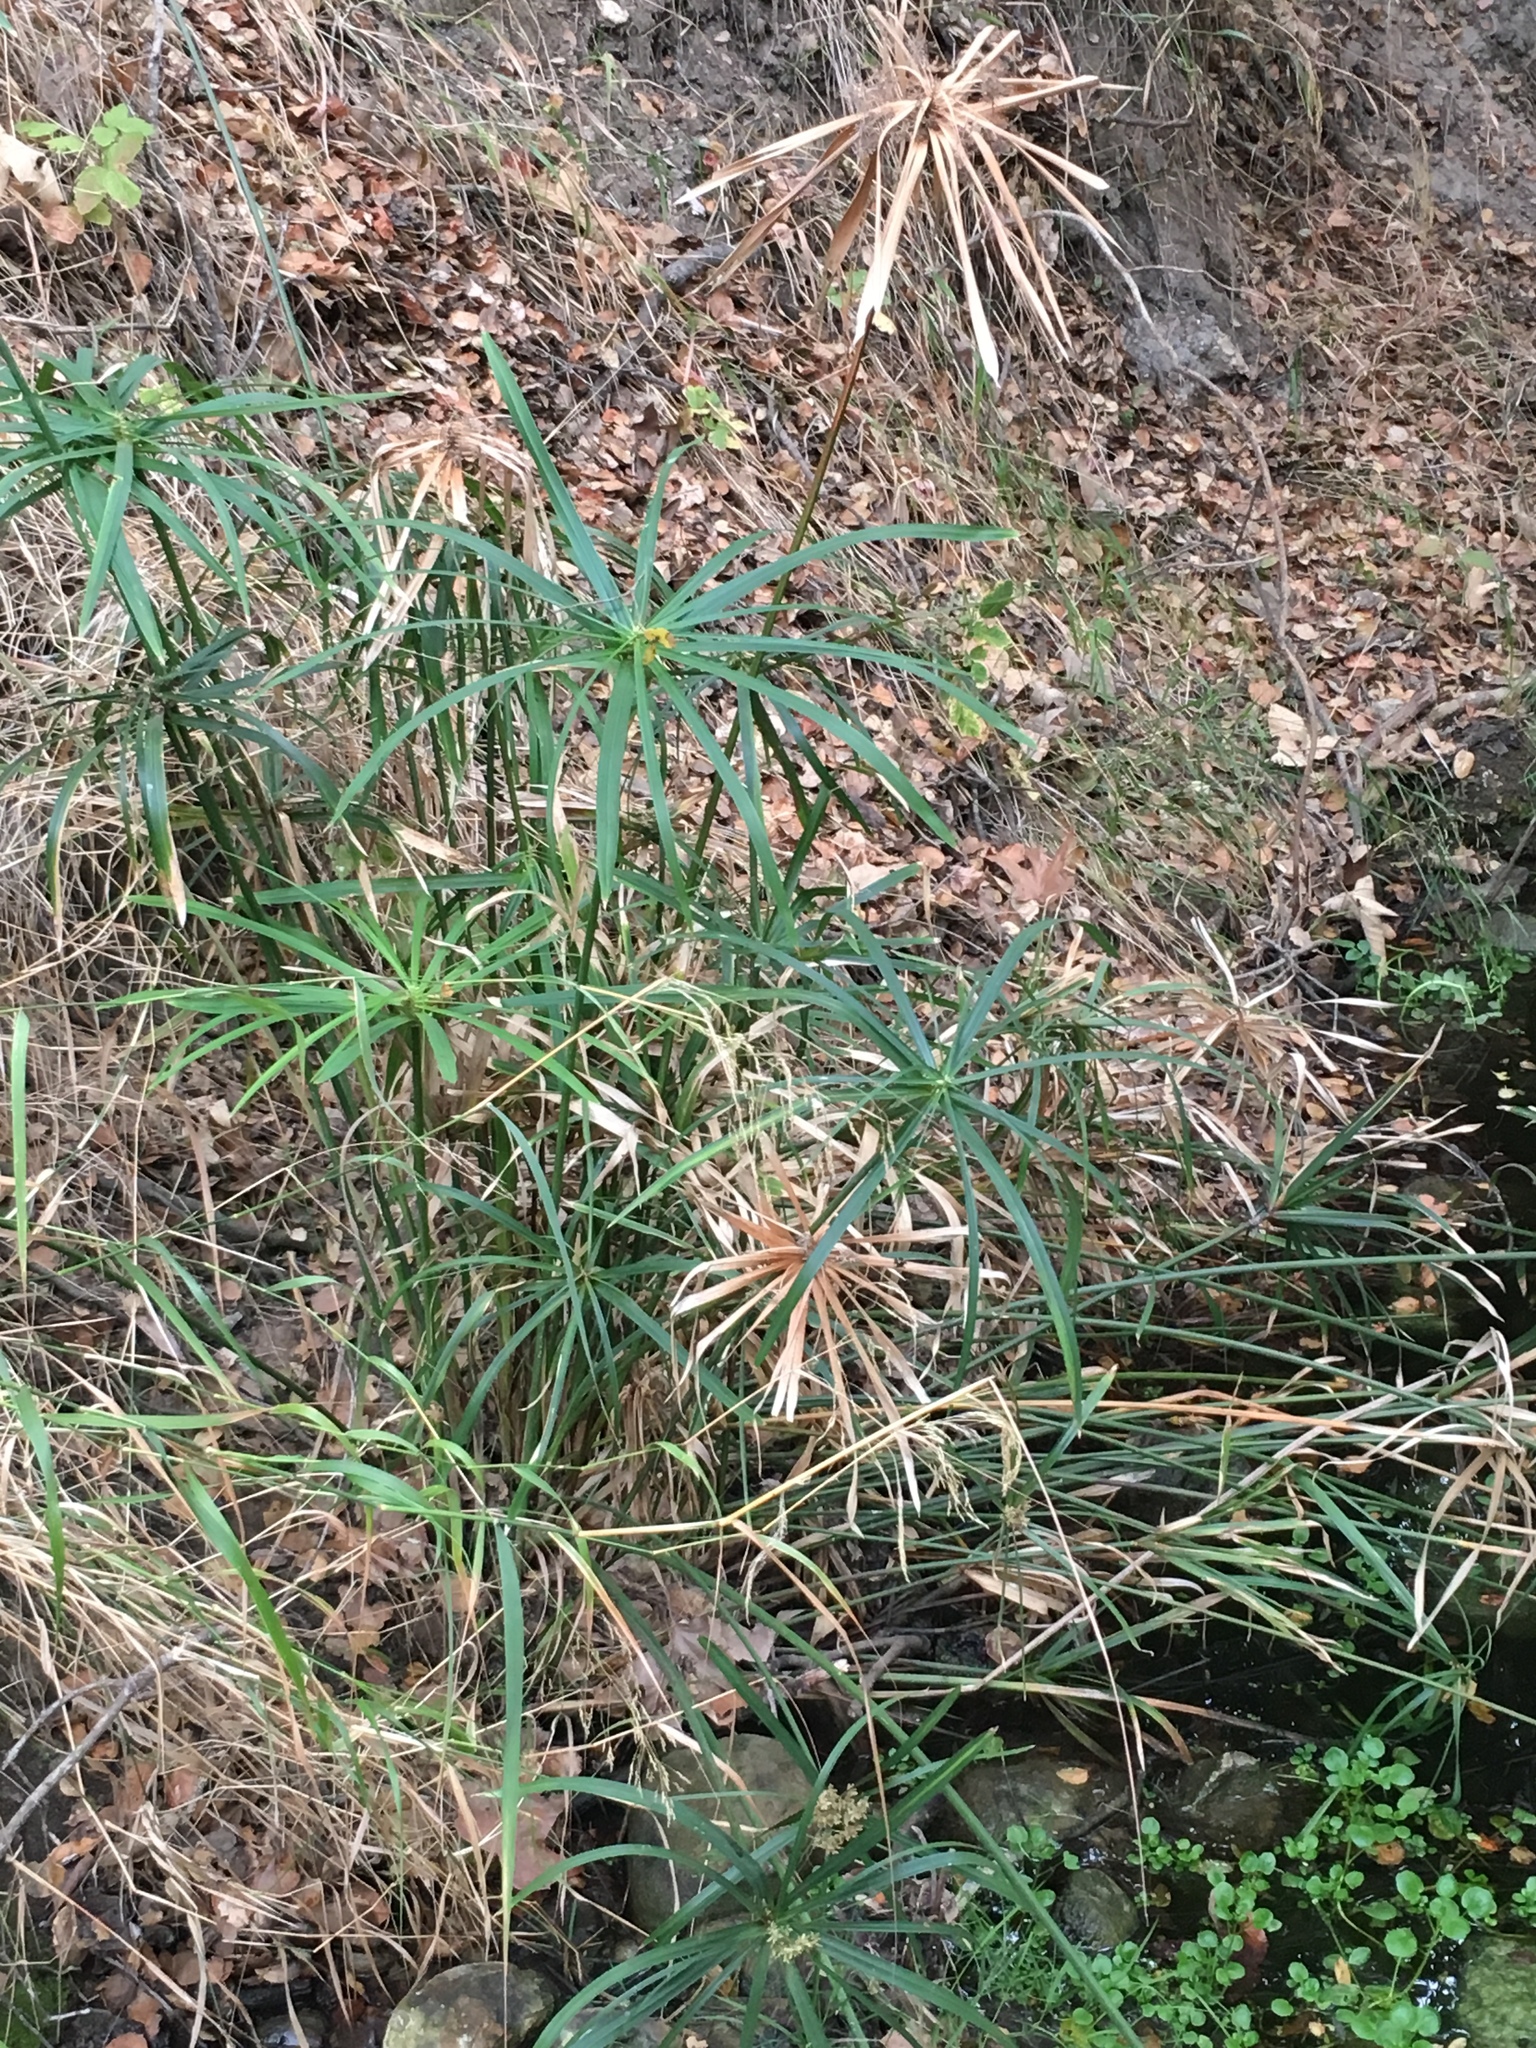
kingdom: Plantae
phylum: Tracheophyta
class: Liliopsida
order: Poales
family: Cyperaceae
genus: Cyperus
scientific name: Cyperus alternifolius
